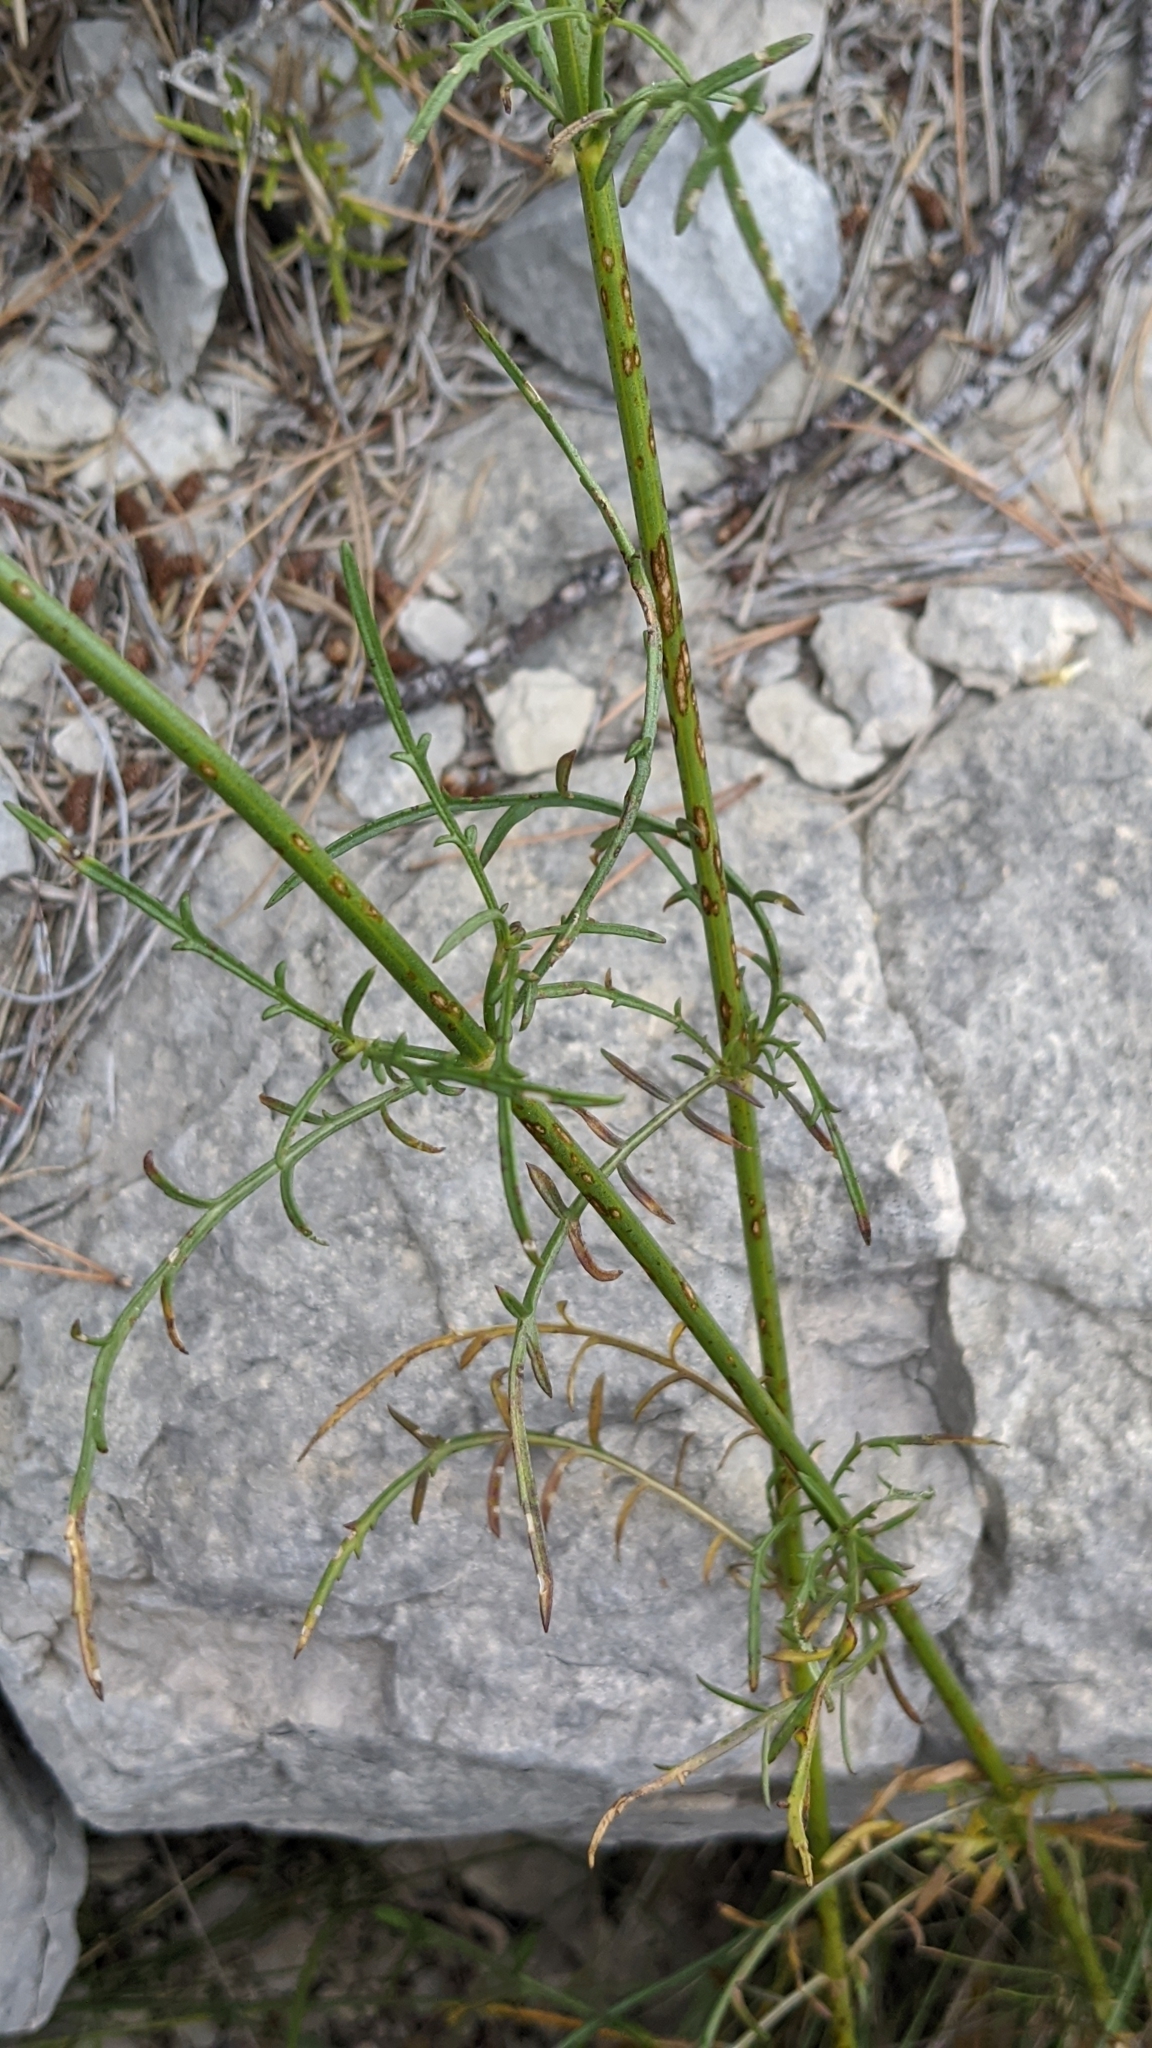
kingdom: Plantae
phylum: Tracheophyta
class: Magnoliopsida
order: Dipsacales
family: Caprifoliaceae
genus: Cephalaria
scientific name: Cephalaria leucantha
